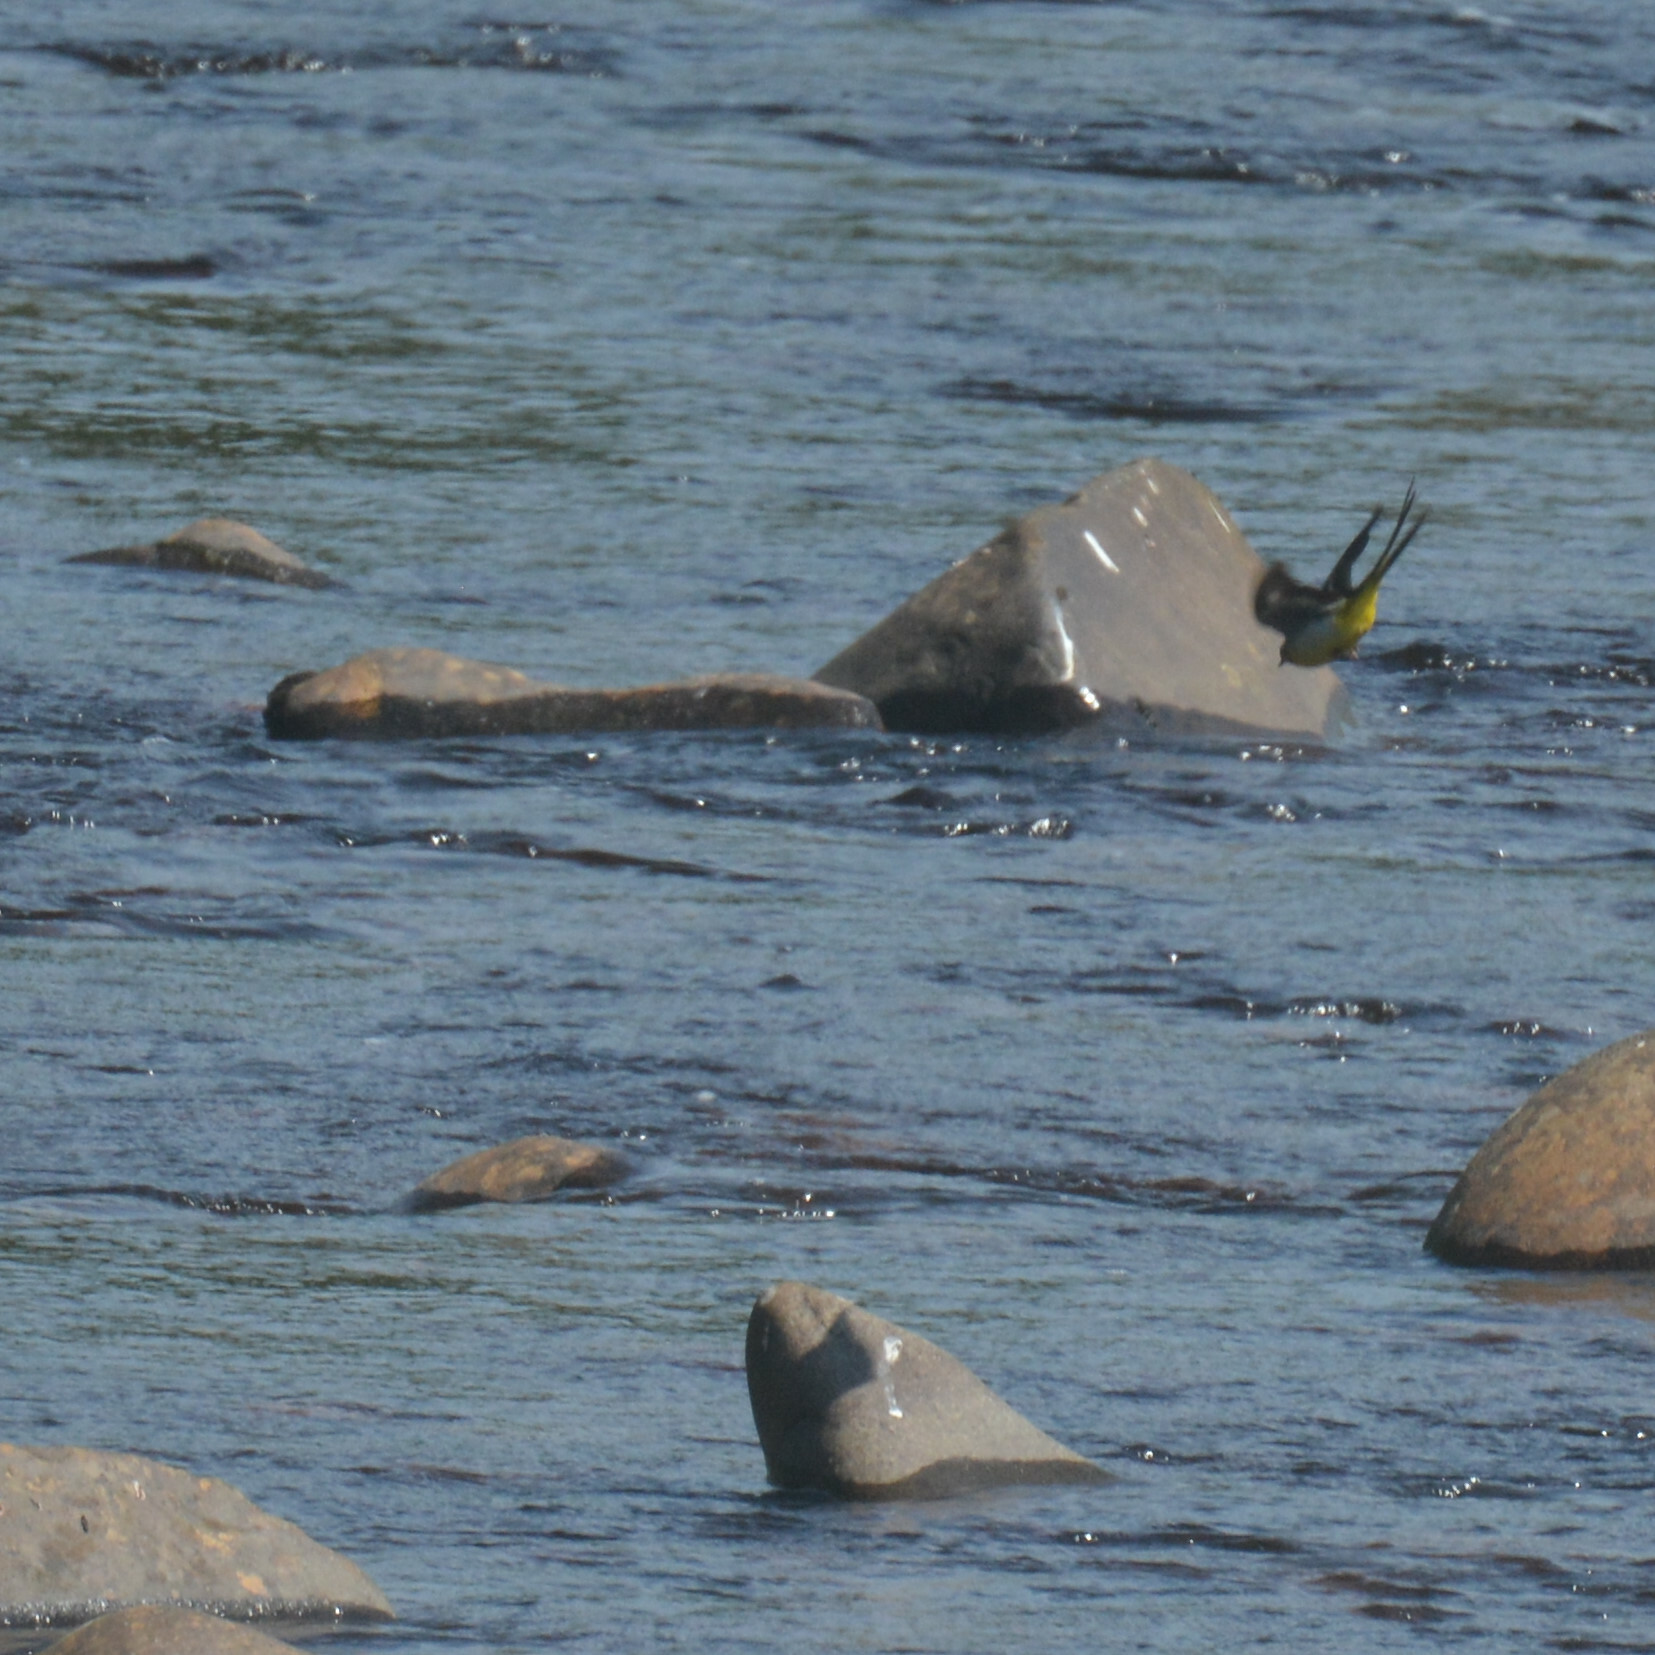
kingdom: Animalia
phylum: Chordata
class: Aves
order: Passeriformes
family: Motacillidae
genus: Motacilla
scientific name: Motacilla cinerea
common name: Grey wagtail
